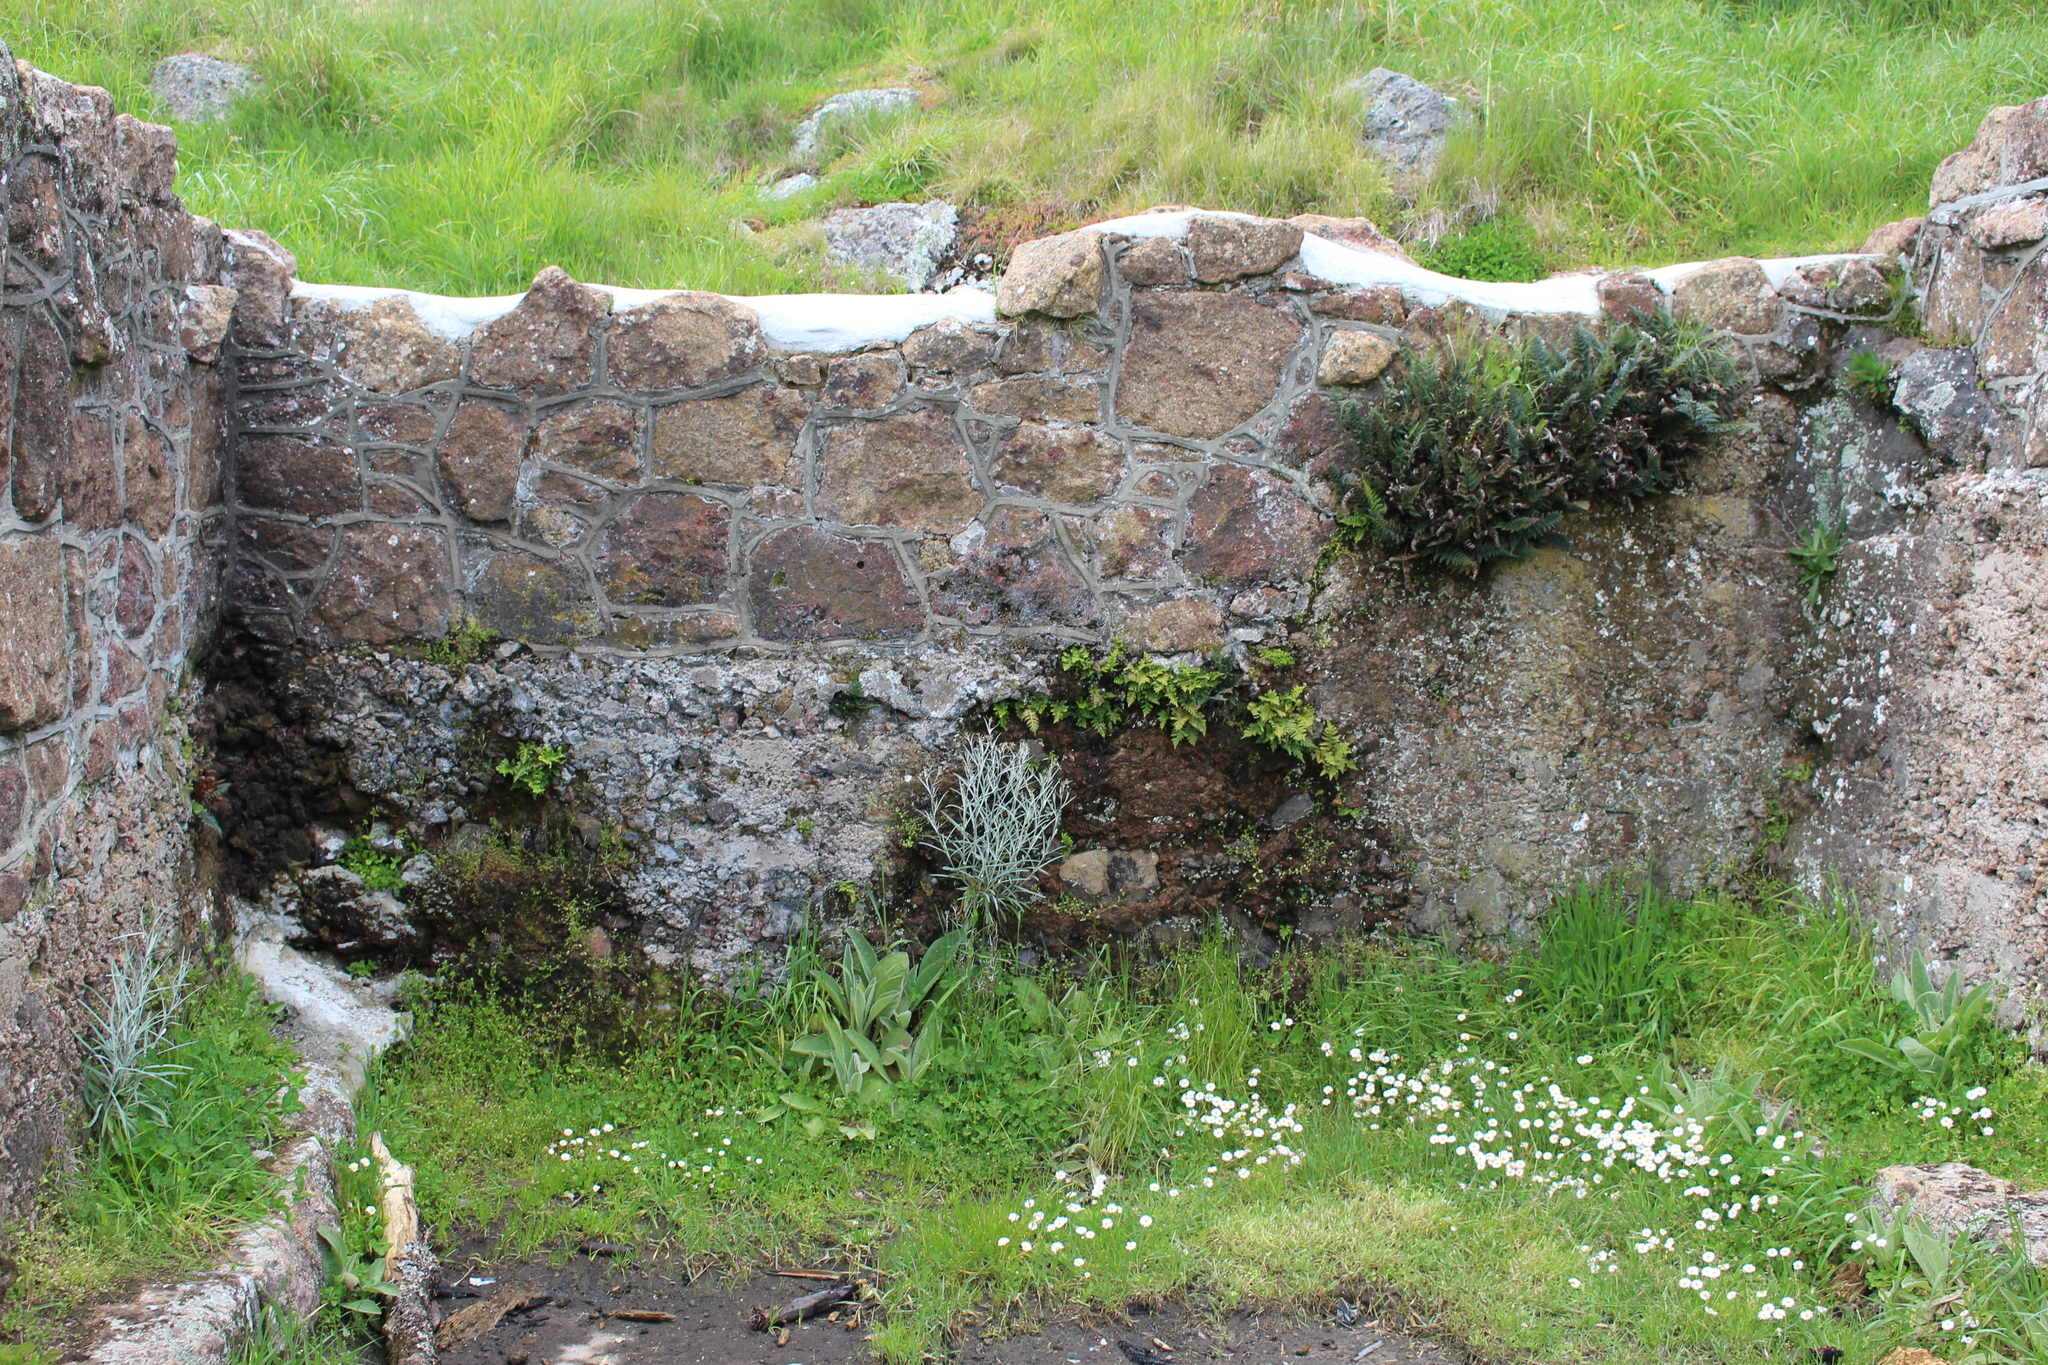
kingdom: Plantae
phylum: Tracheophyta
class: Magnoliopsida
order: Asterales
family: Asteraceae
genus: Senecio
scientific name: Senecio quadridentatus
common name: Cotton fireweed
